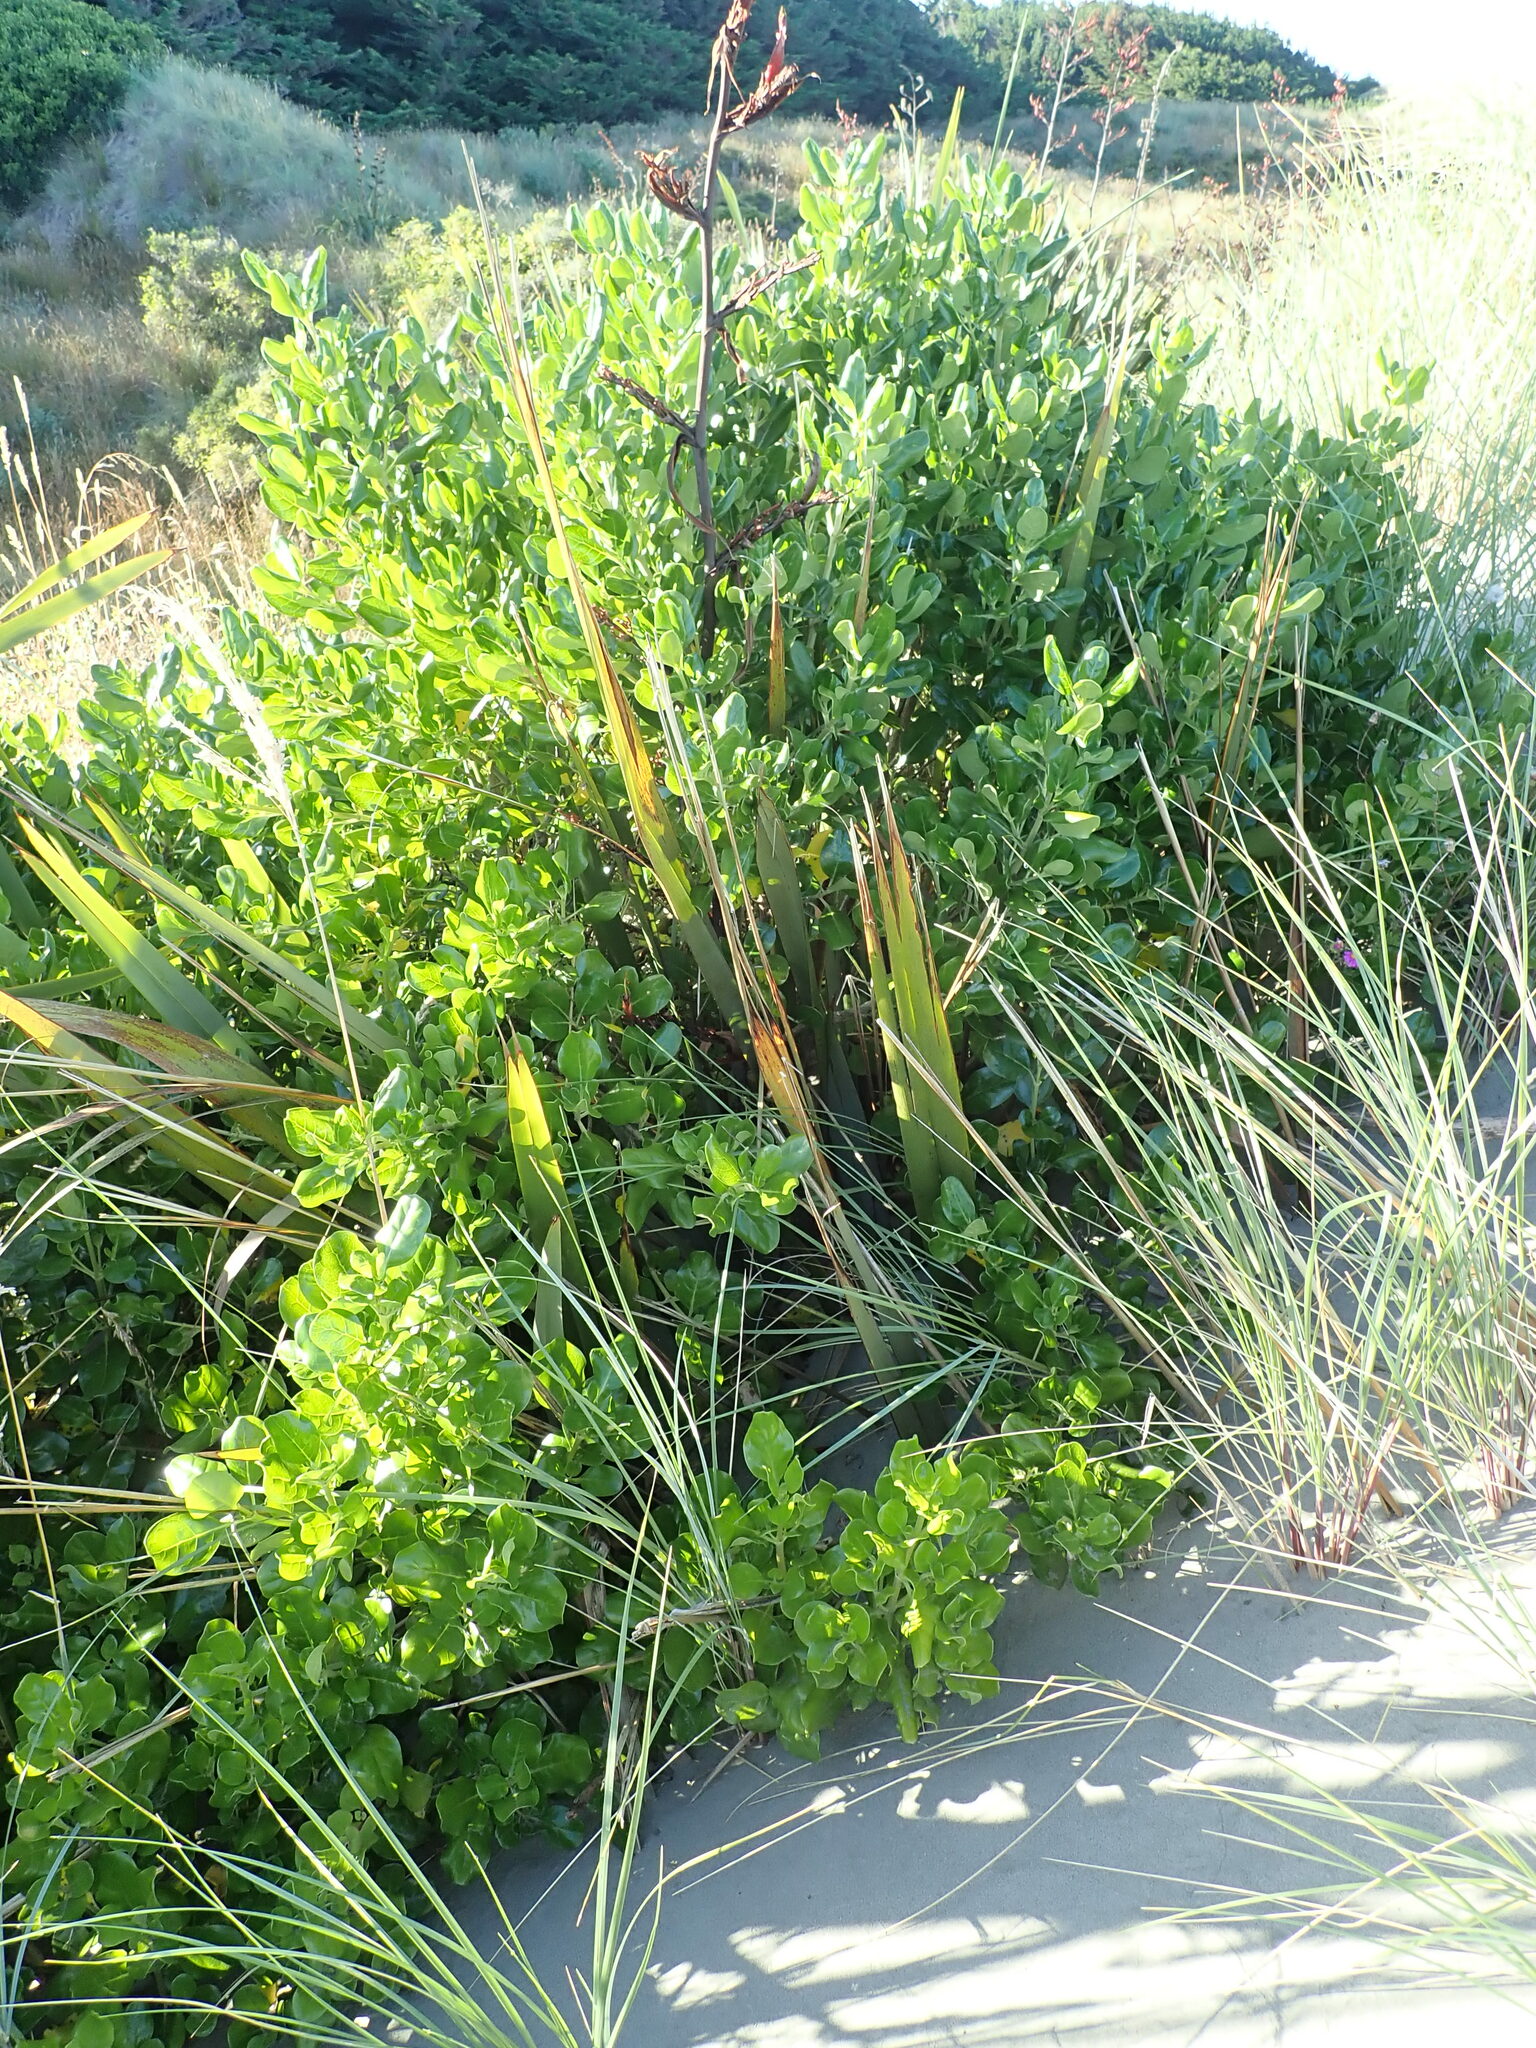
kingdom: Plantae
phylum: Tracheophyta
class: Magnoliopsida
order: Gentianales
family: Rubiaceae
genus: Coprosma
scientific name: Coprosma repens
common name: Tree bedstraw
